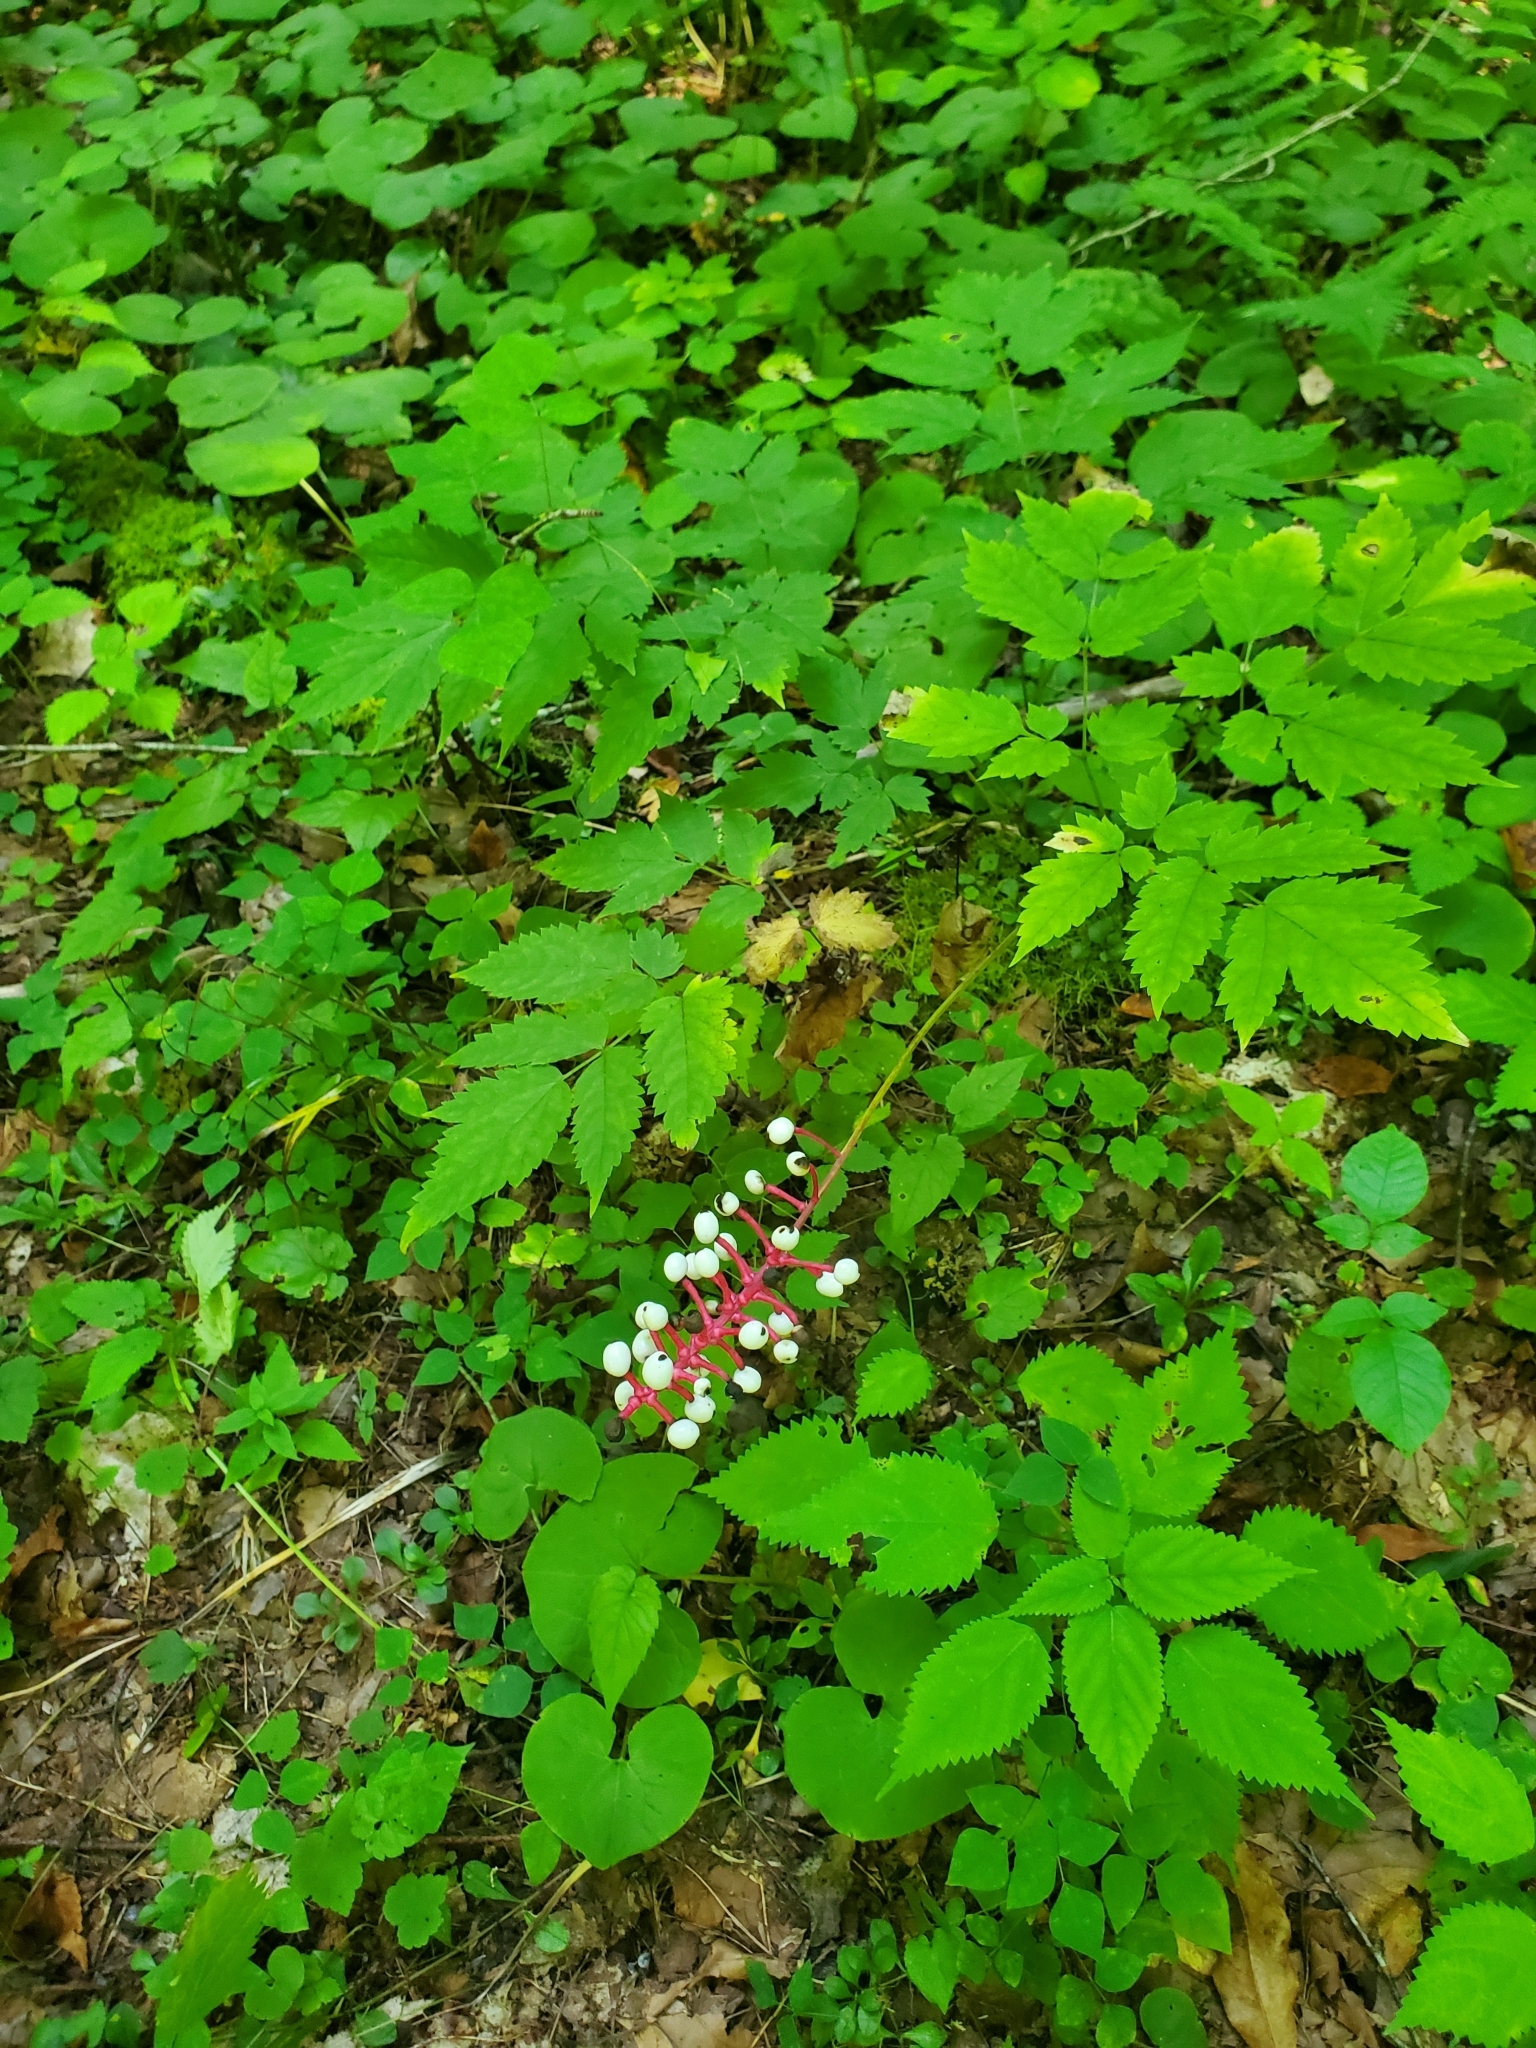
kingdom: Plantae
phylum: Tracheophyta
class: Magnoliopsida
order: Ranunculales
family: Ranunculaceae
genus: Actaea
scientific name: Actaea pachypoda
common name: Doll's-eyes
